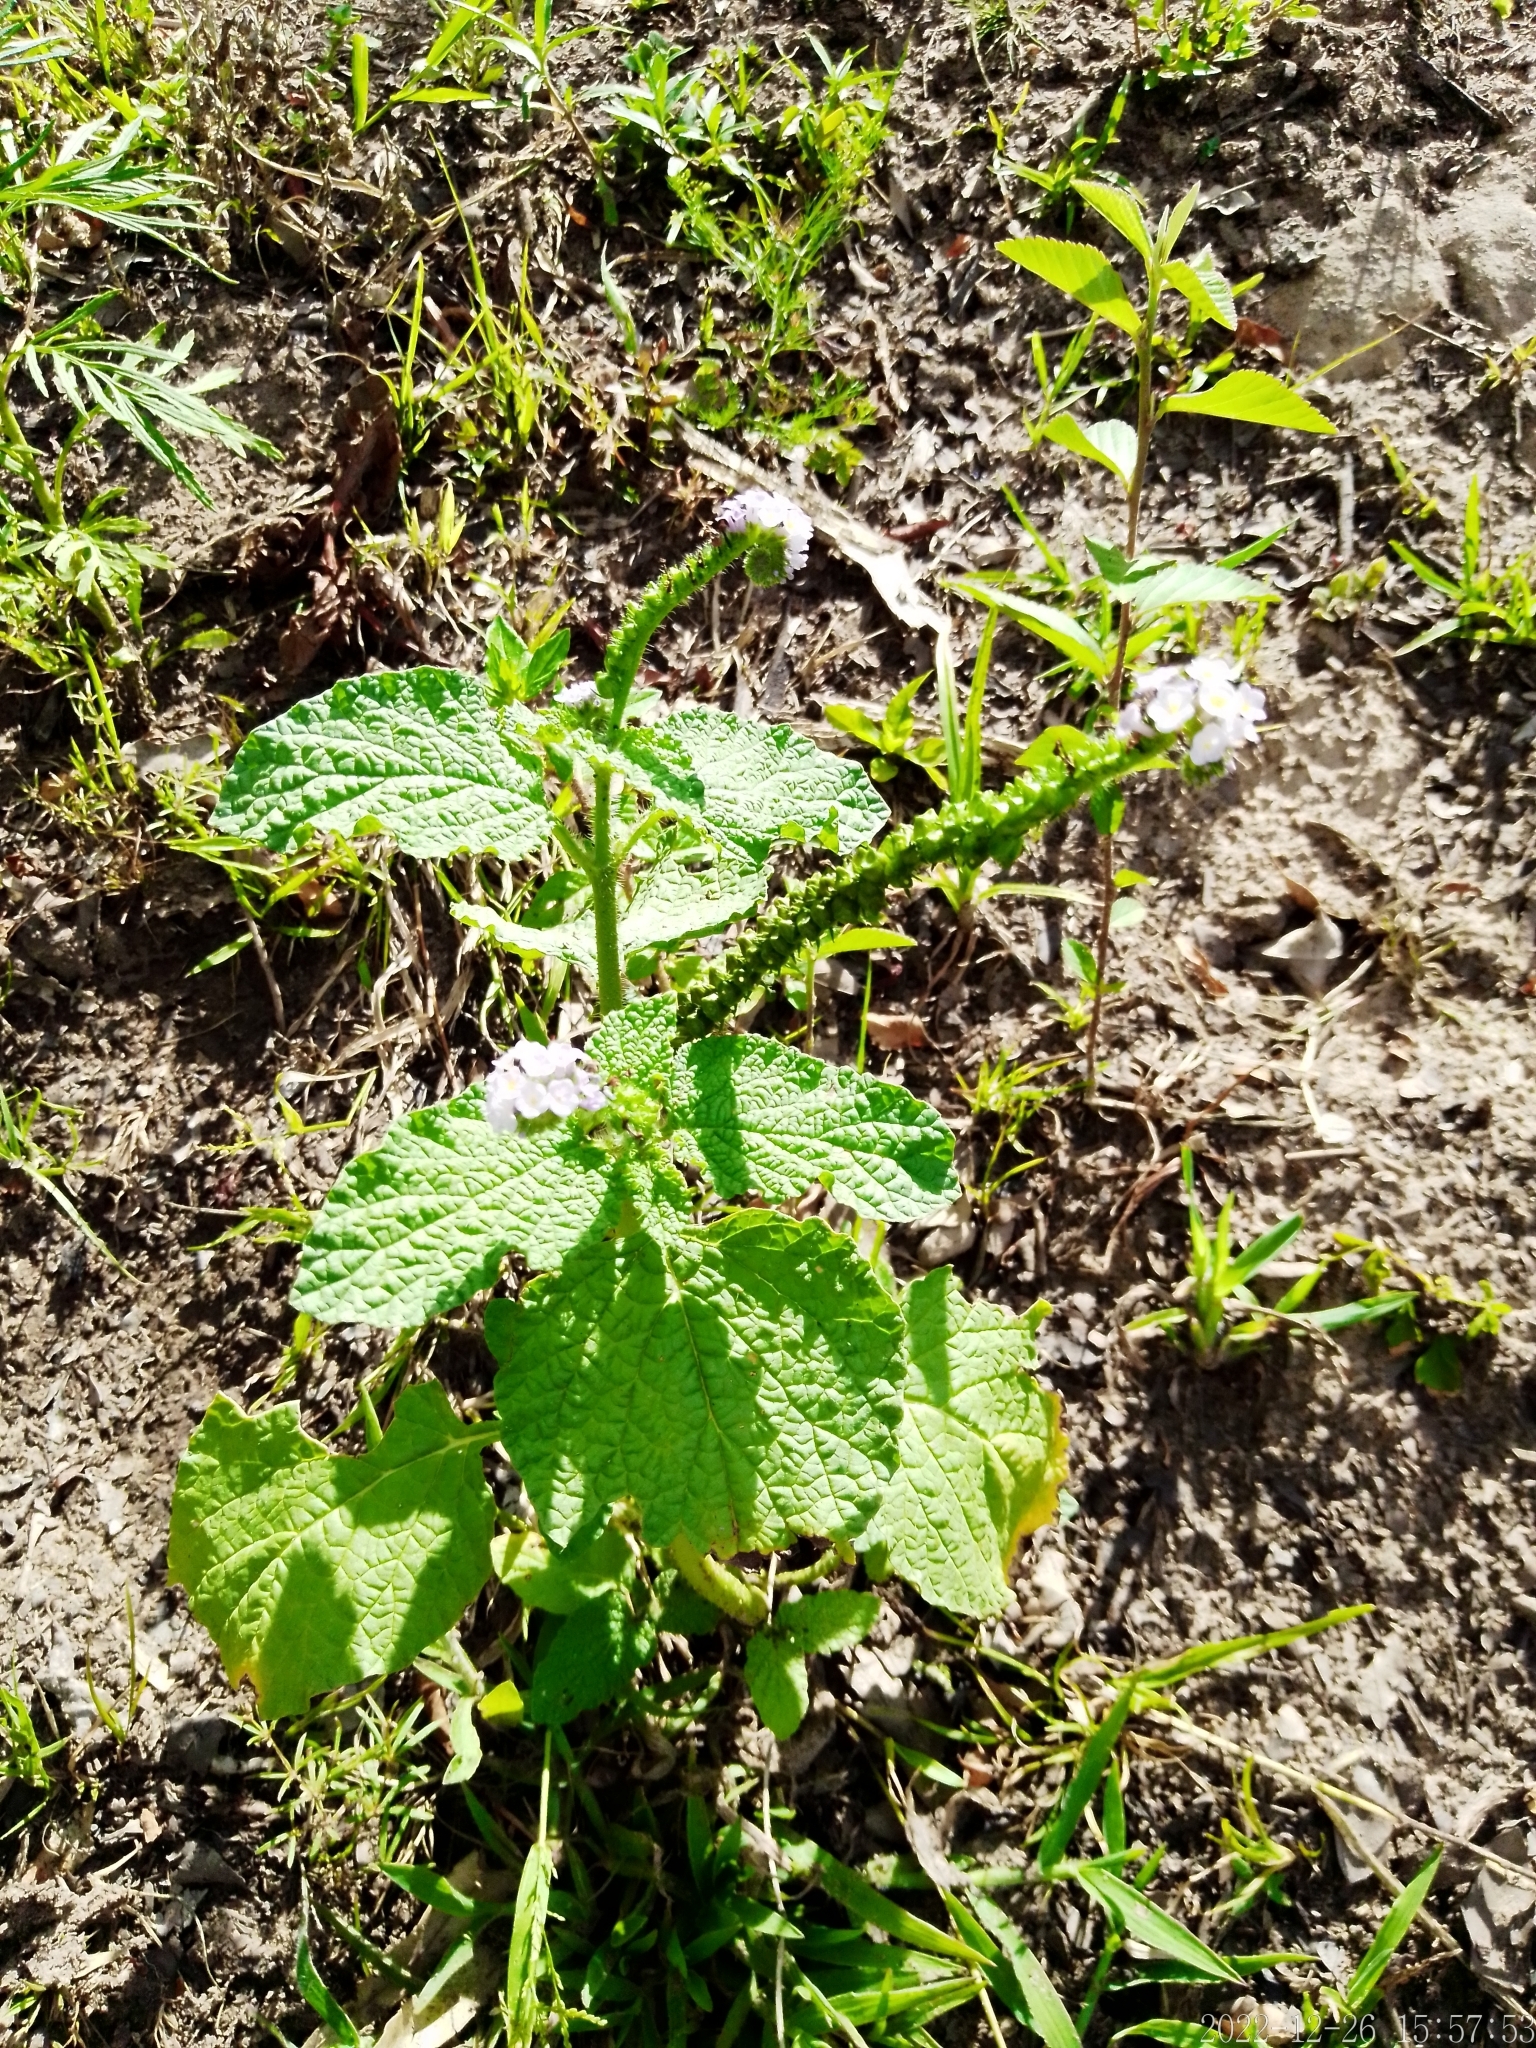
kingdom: Plantae
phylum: Tracheophyta
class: Magnoliopsida
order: Boraginales
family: Heliotropiaceae
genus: Heliotropium
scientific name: Heliotropium elongatum
